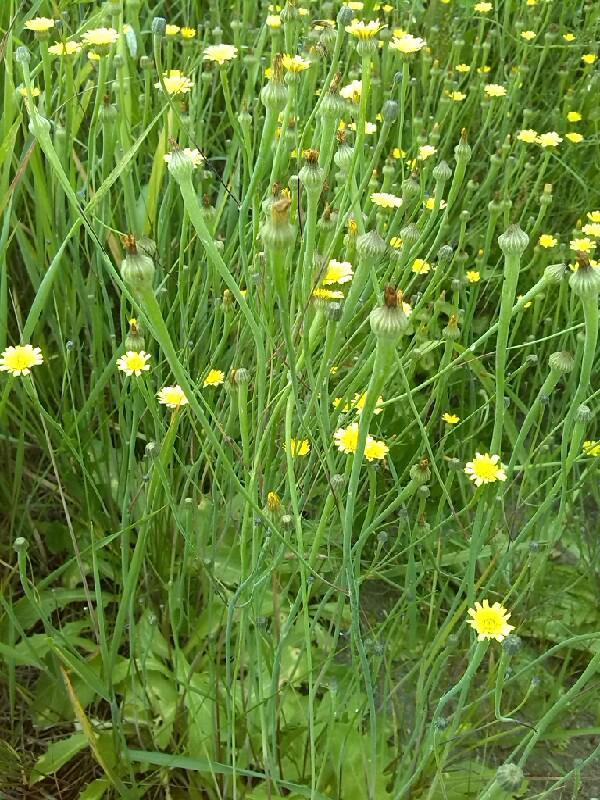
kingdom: Plantae
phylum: Tracheophyta
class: Magnoliopsida
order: Asterales
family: Asteraceae
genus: Arnoseris
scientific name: Arnoseris minima
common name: Lamb's succory
